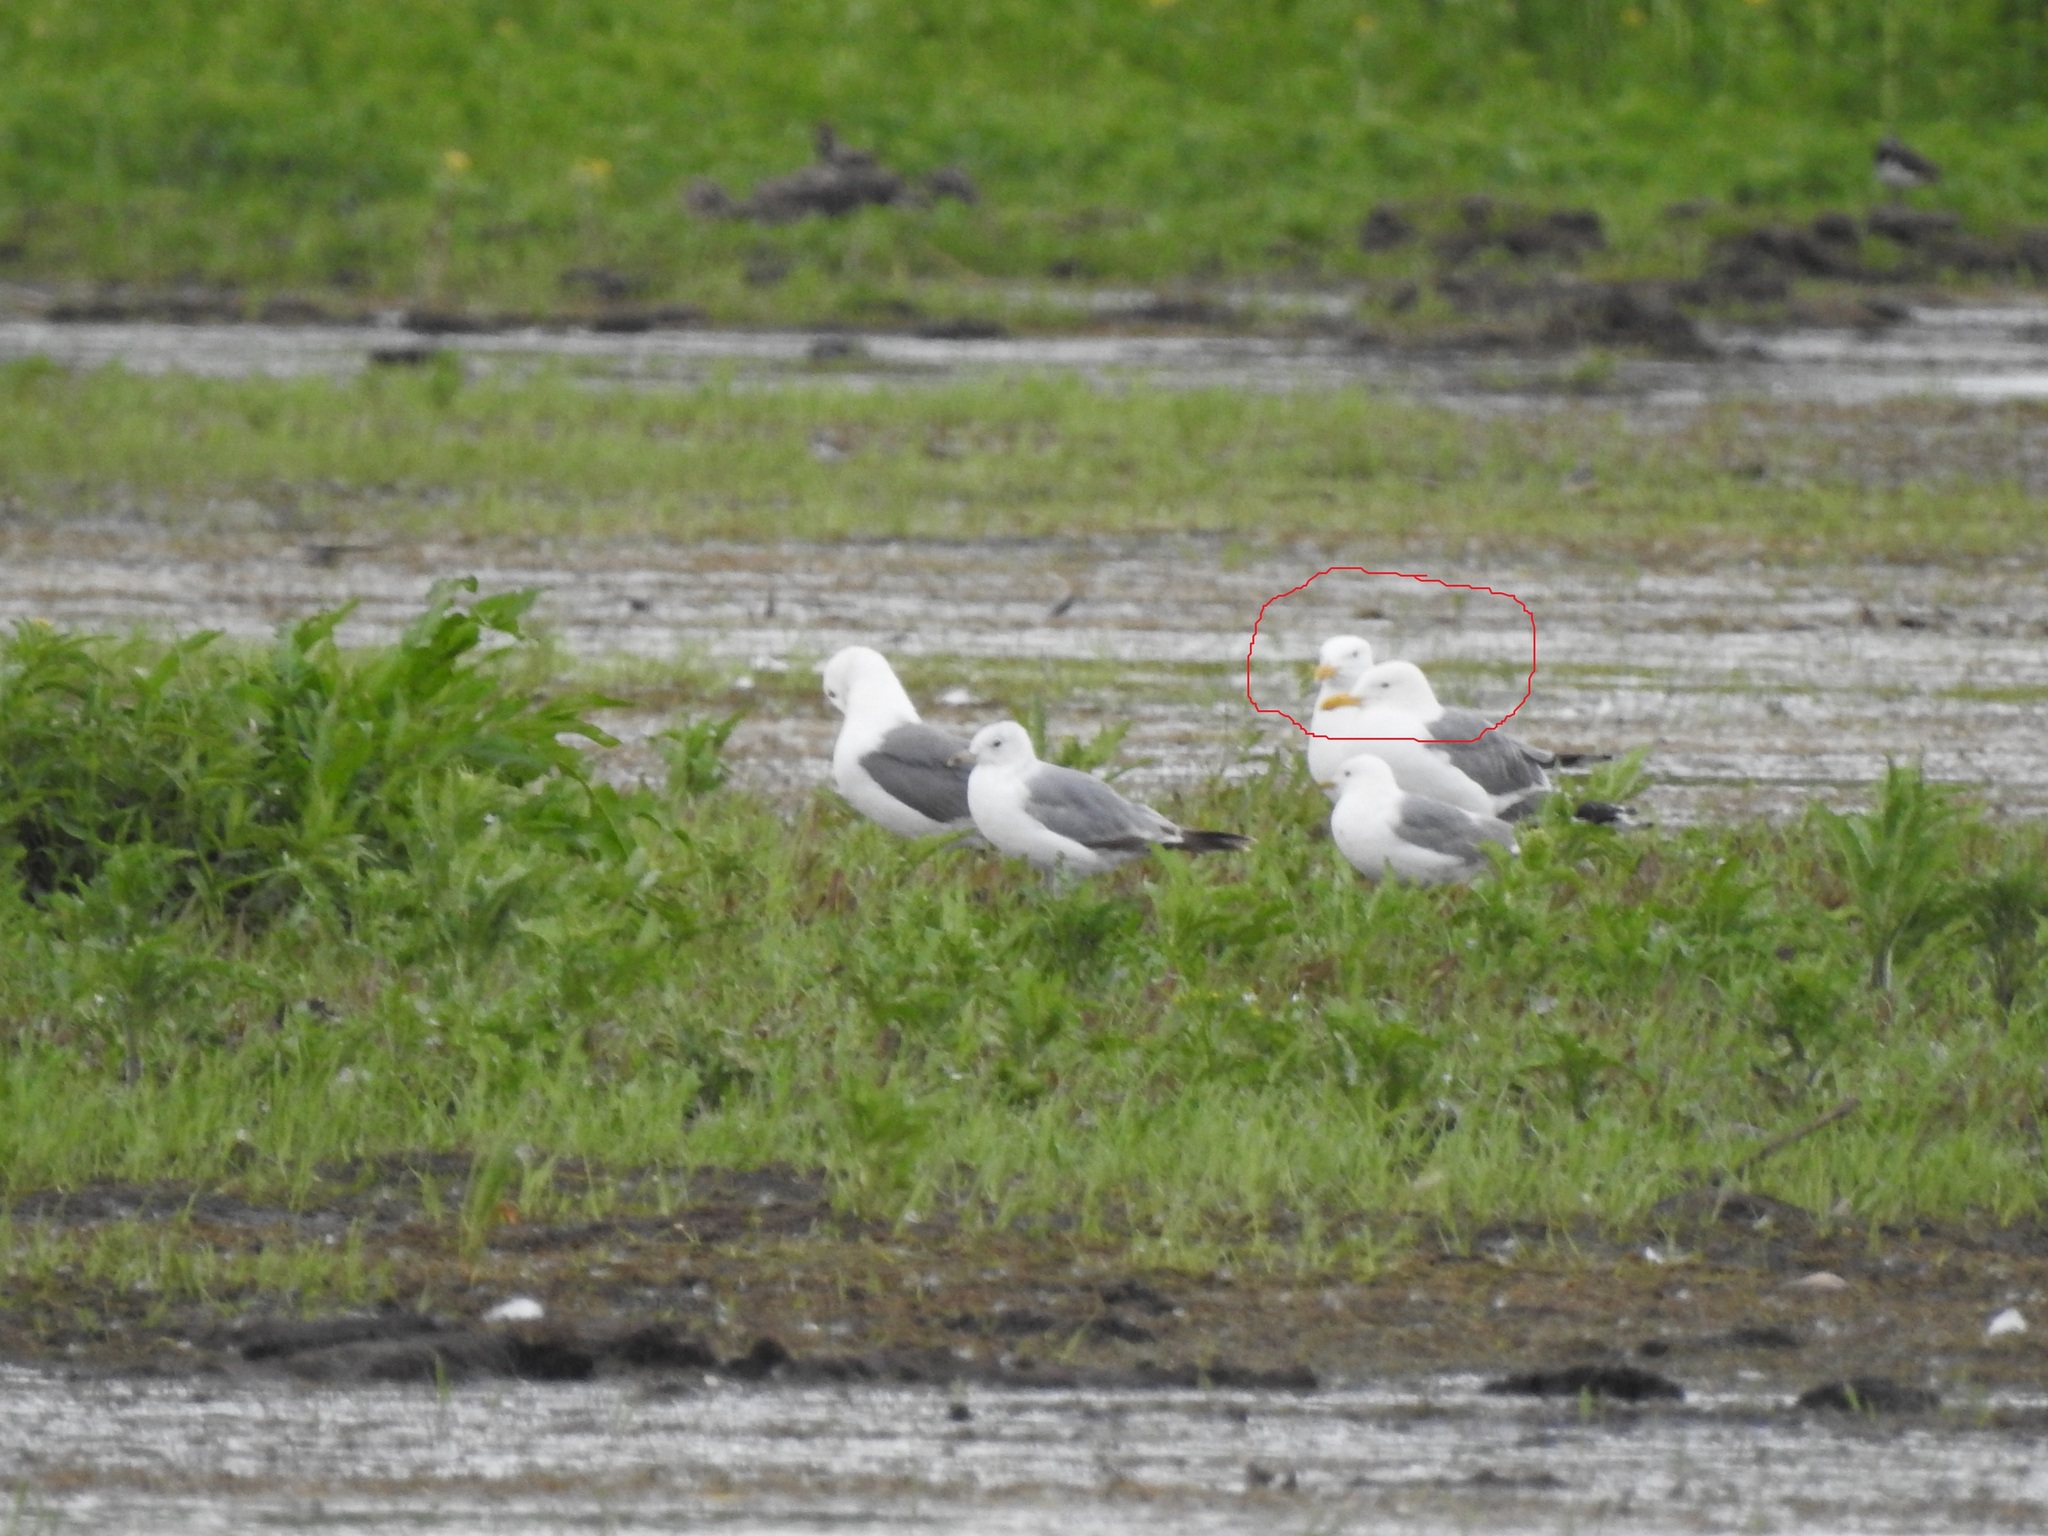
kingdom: Animalia
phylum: Chordata
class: Aves
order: Charadriiformes
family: Laridae
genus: Larus
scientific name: Larus fuscus
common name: Lesser black-backed gull
